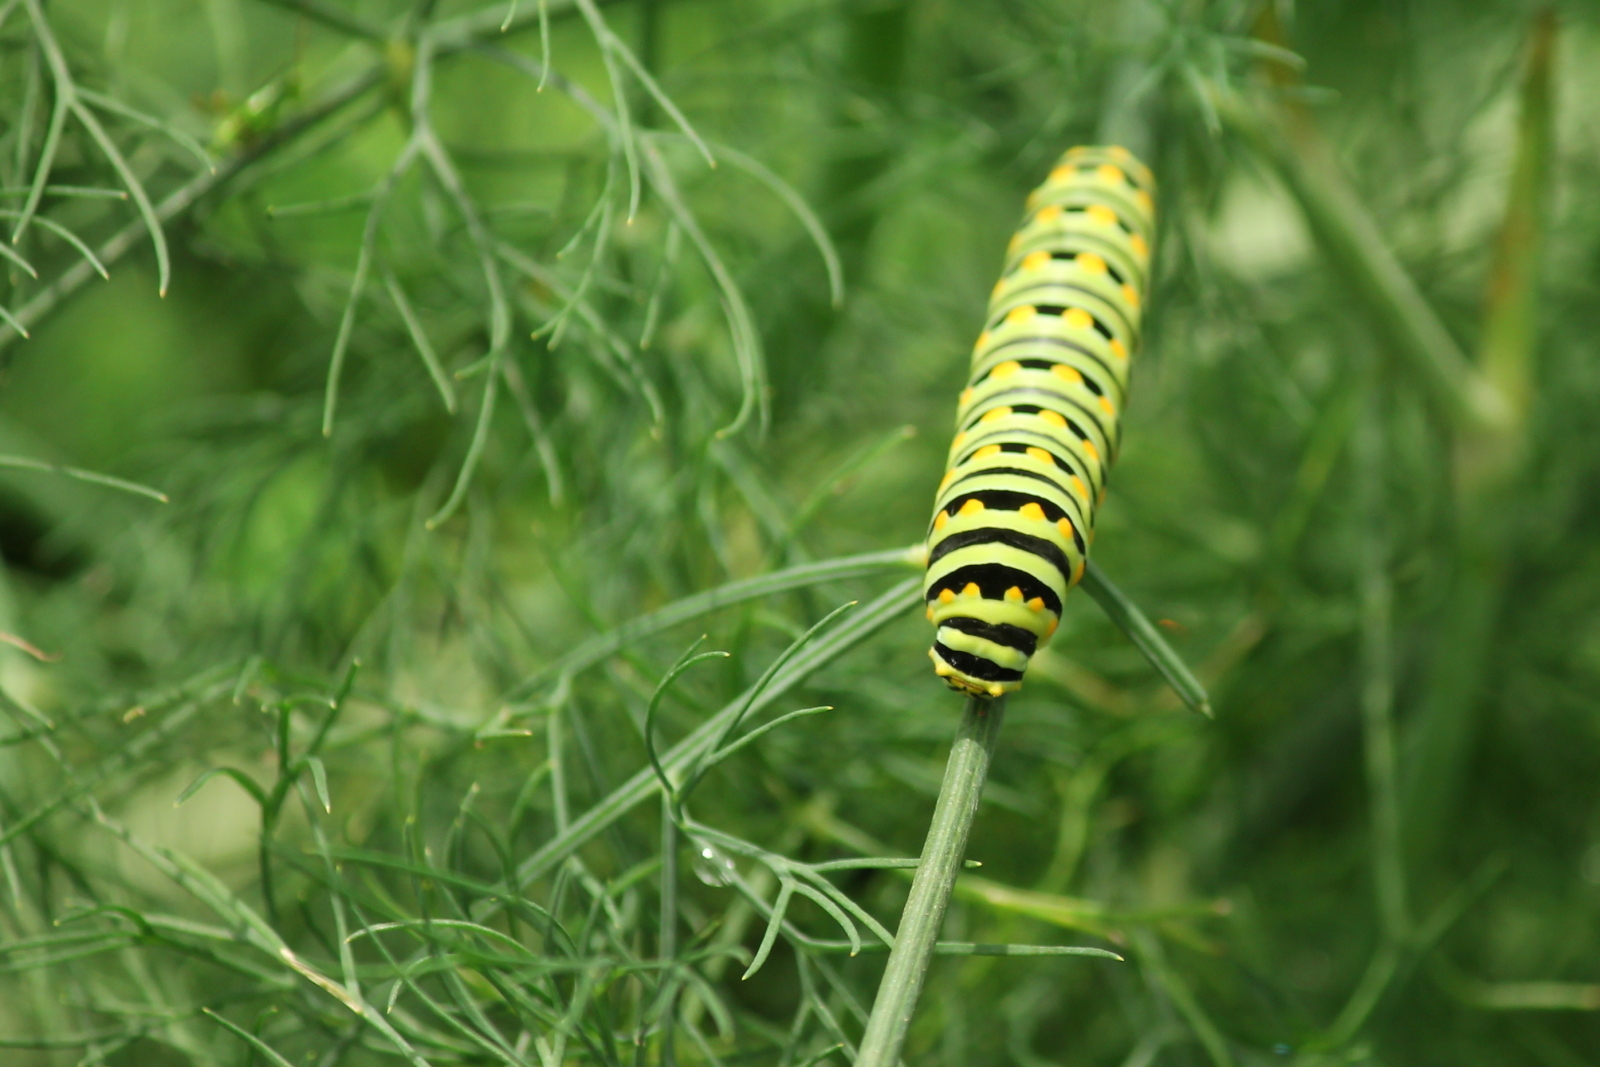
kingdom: Animalia
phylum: Arthropoda
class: Insecta
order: Lepidoptera
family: Papilionidae
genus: Papilio
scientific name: Papilio polyxenes
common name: Black swallowtail
